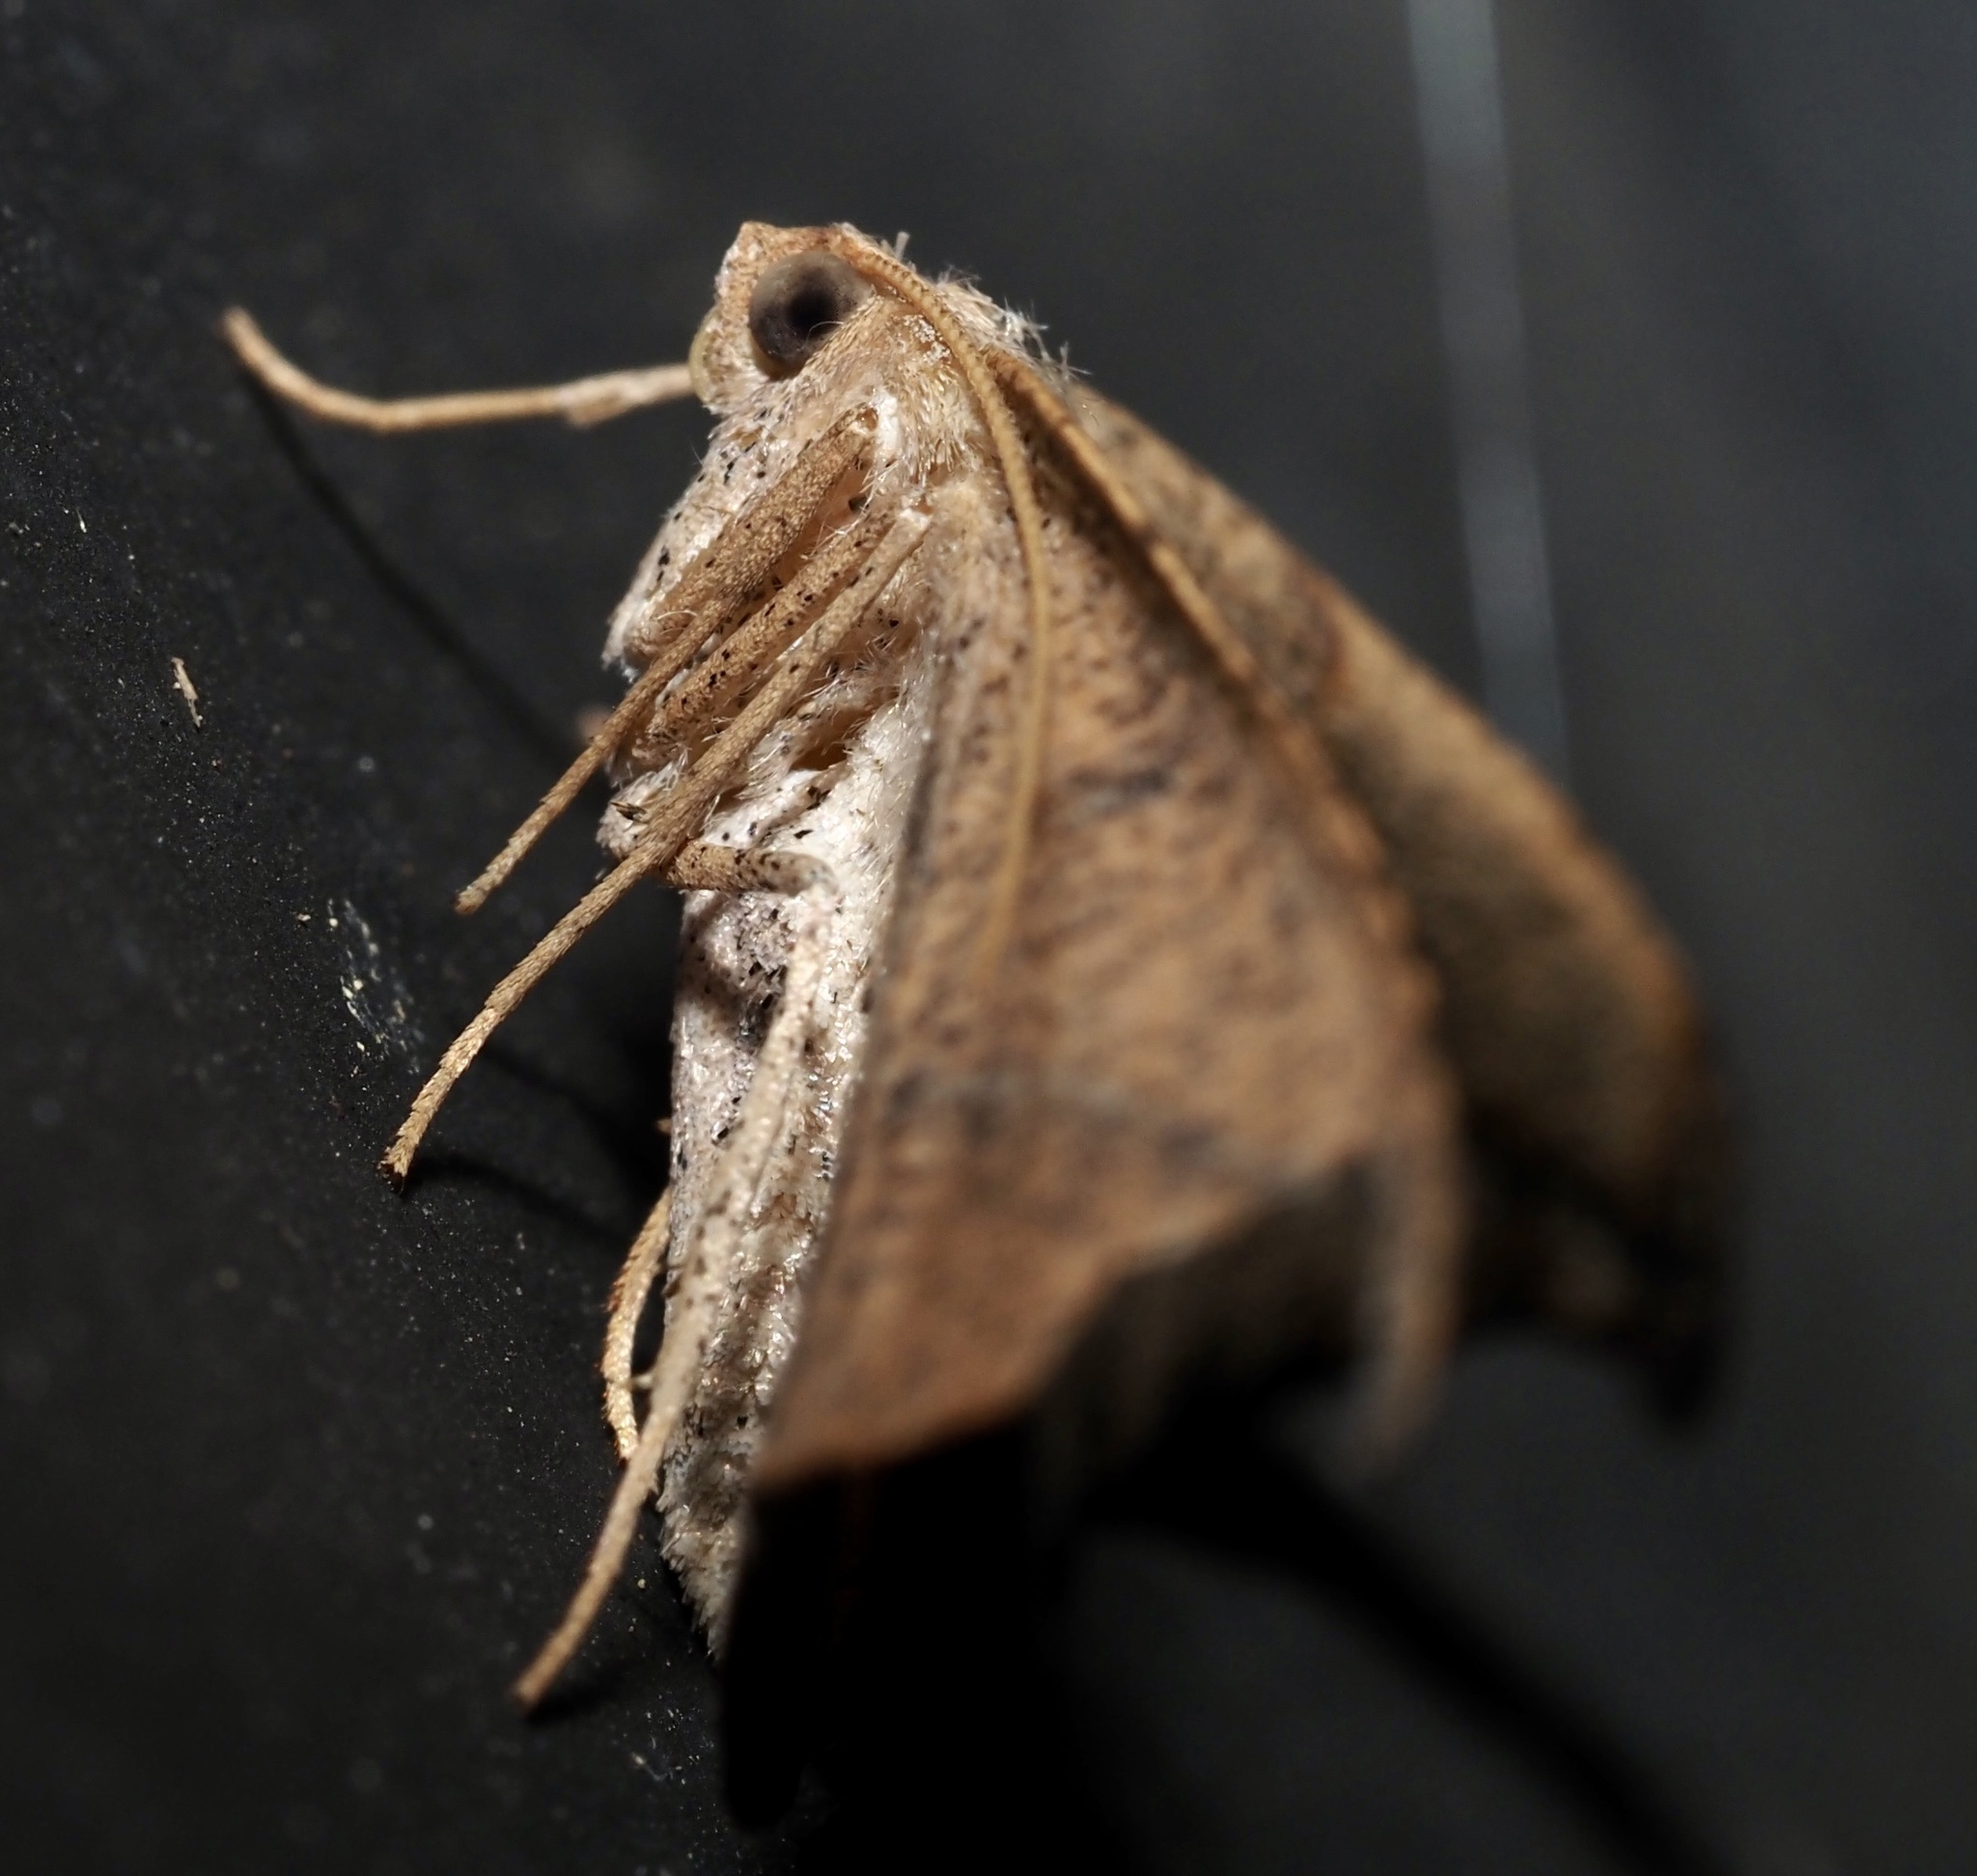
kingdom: Animalia
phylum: Arthropoda
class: Insecta
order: Lepidoptera
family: Geometridae
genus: Patalene
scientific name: Patalene olyzonaria
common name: Juniper geometer moth
